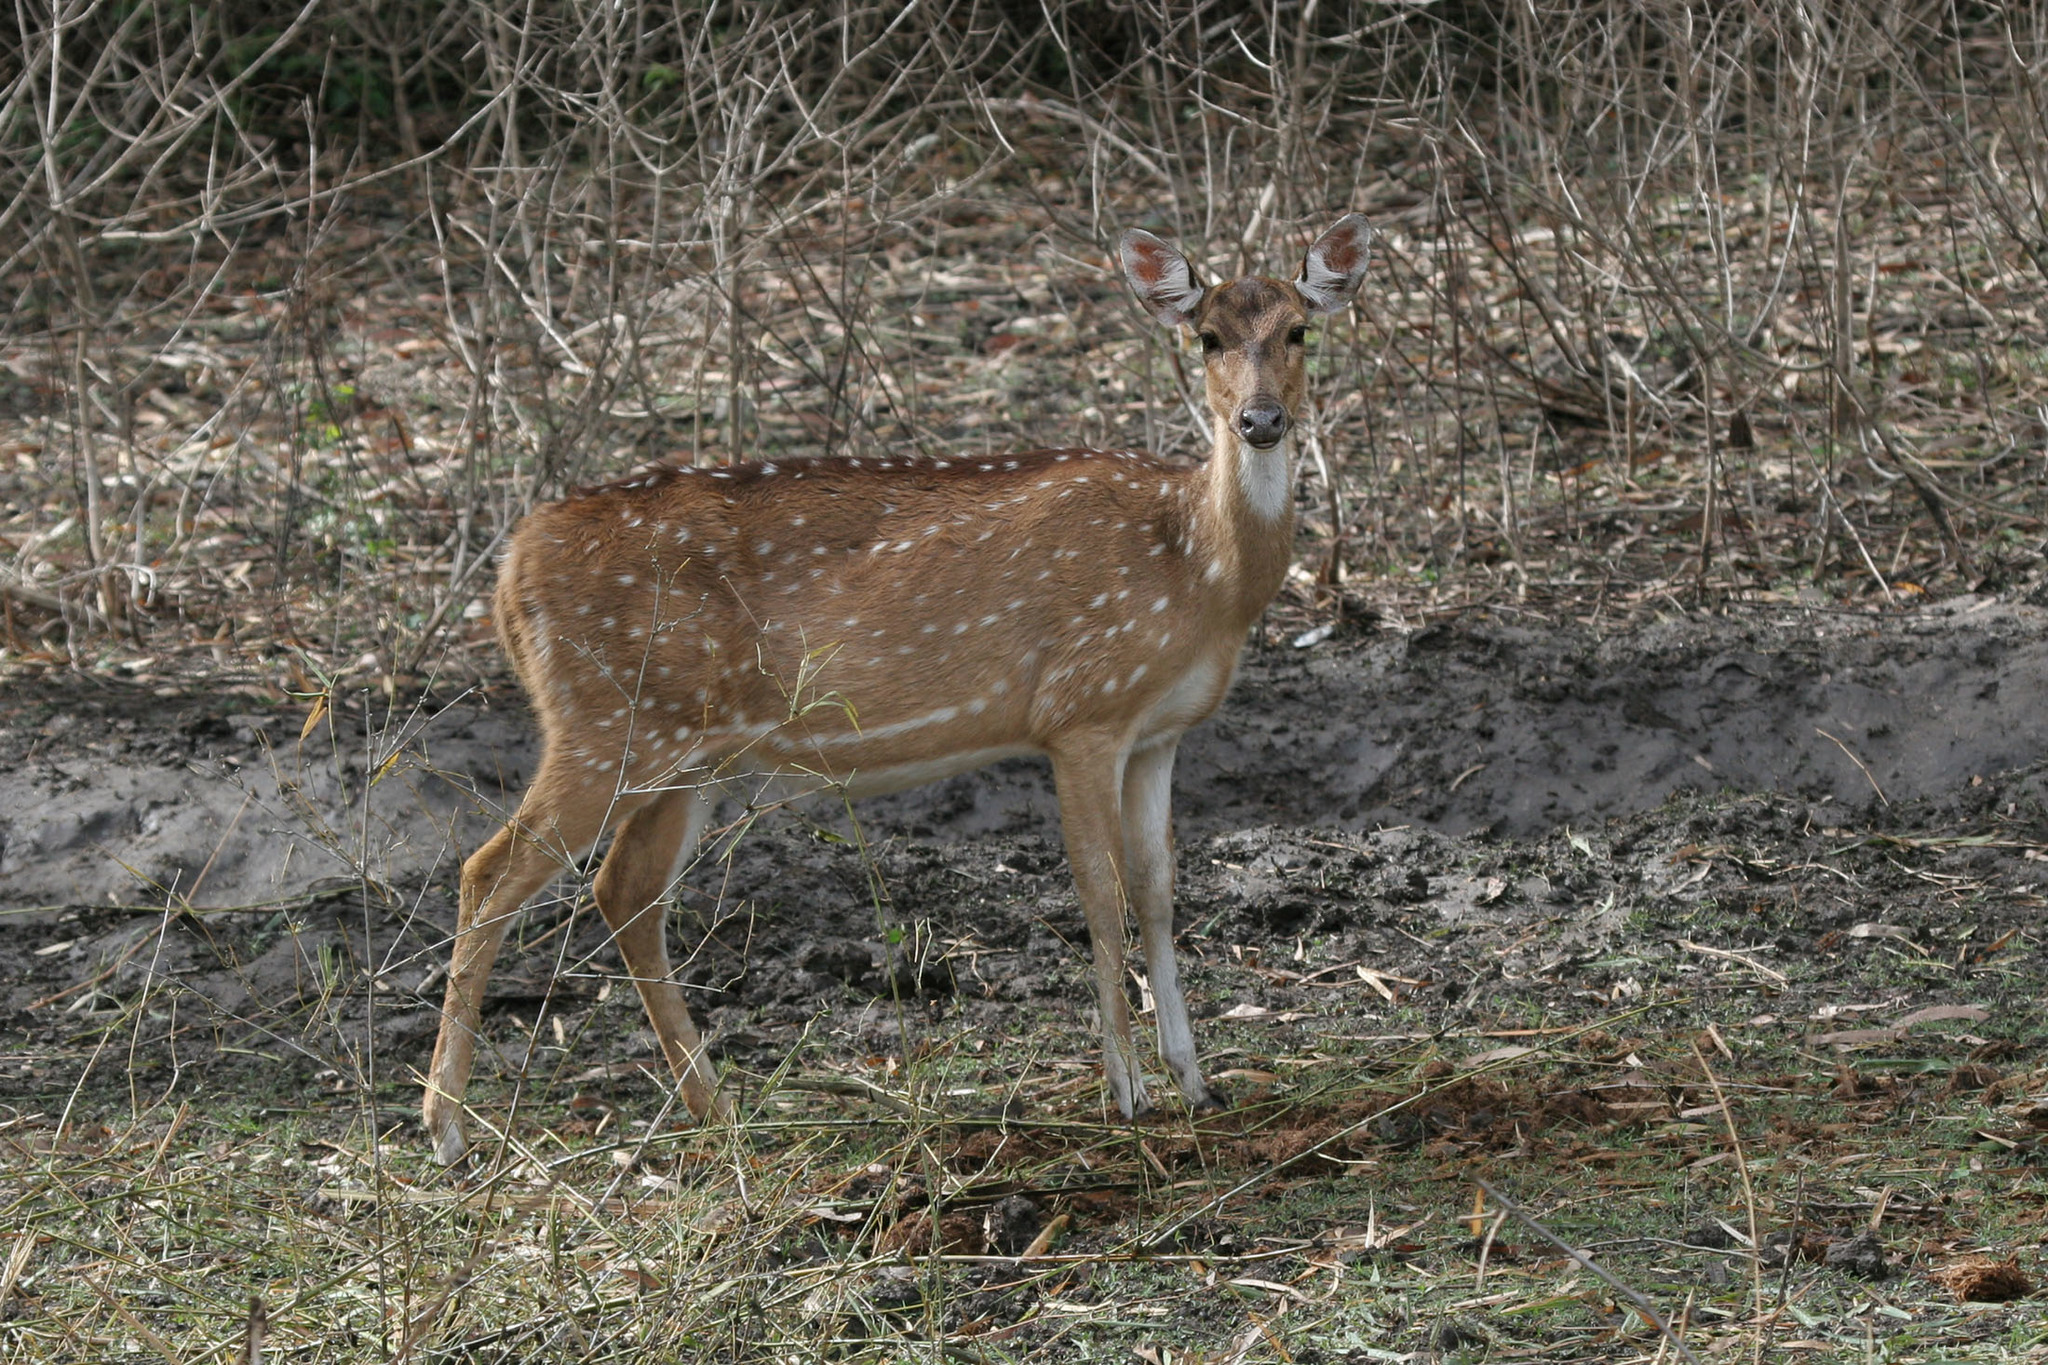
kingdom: Animalia
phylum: Chordata
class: Mammalia
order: Artiodactyla
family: Cervidae
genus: Axis
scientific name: Axis axis
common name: Chital
